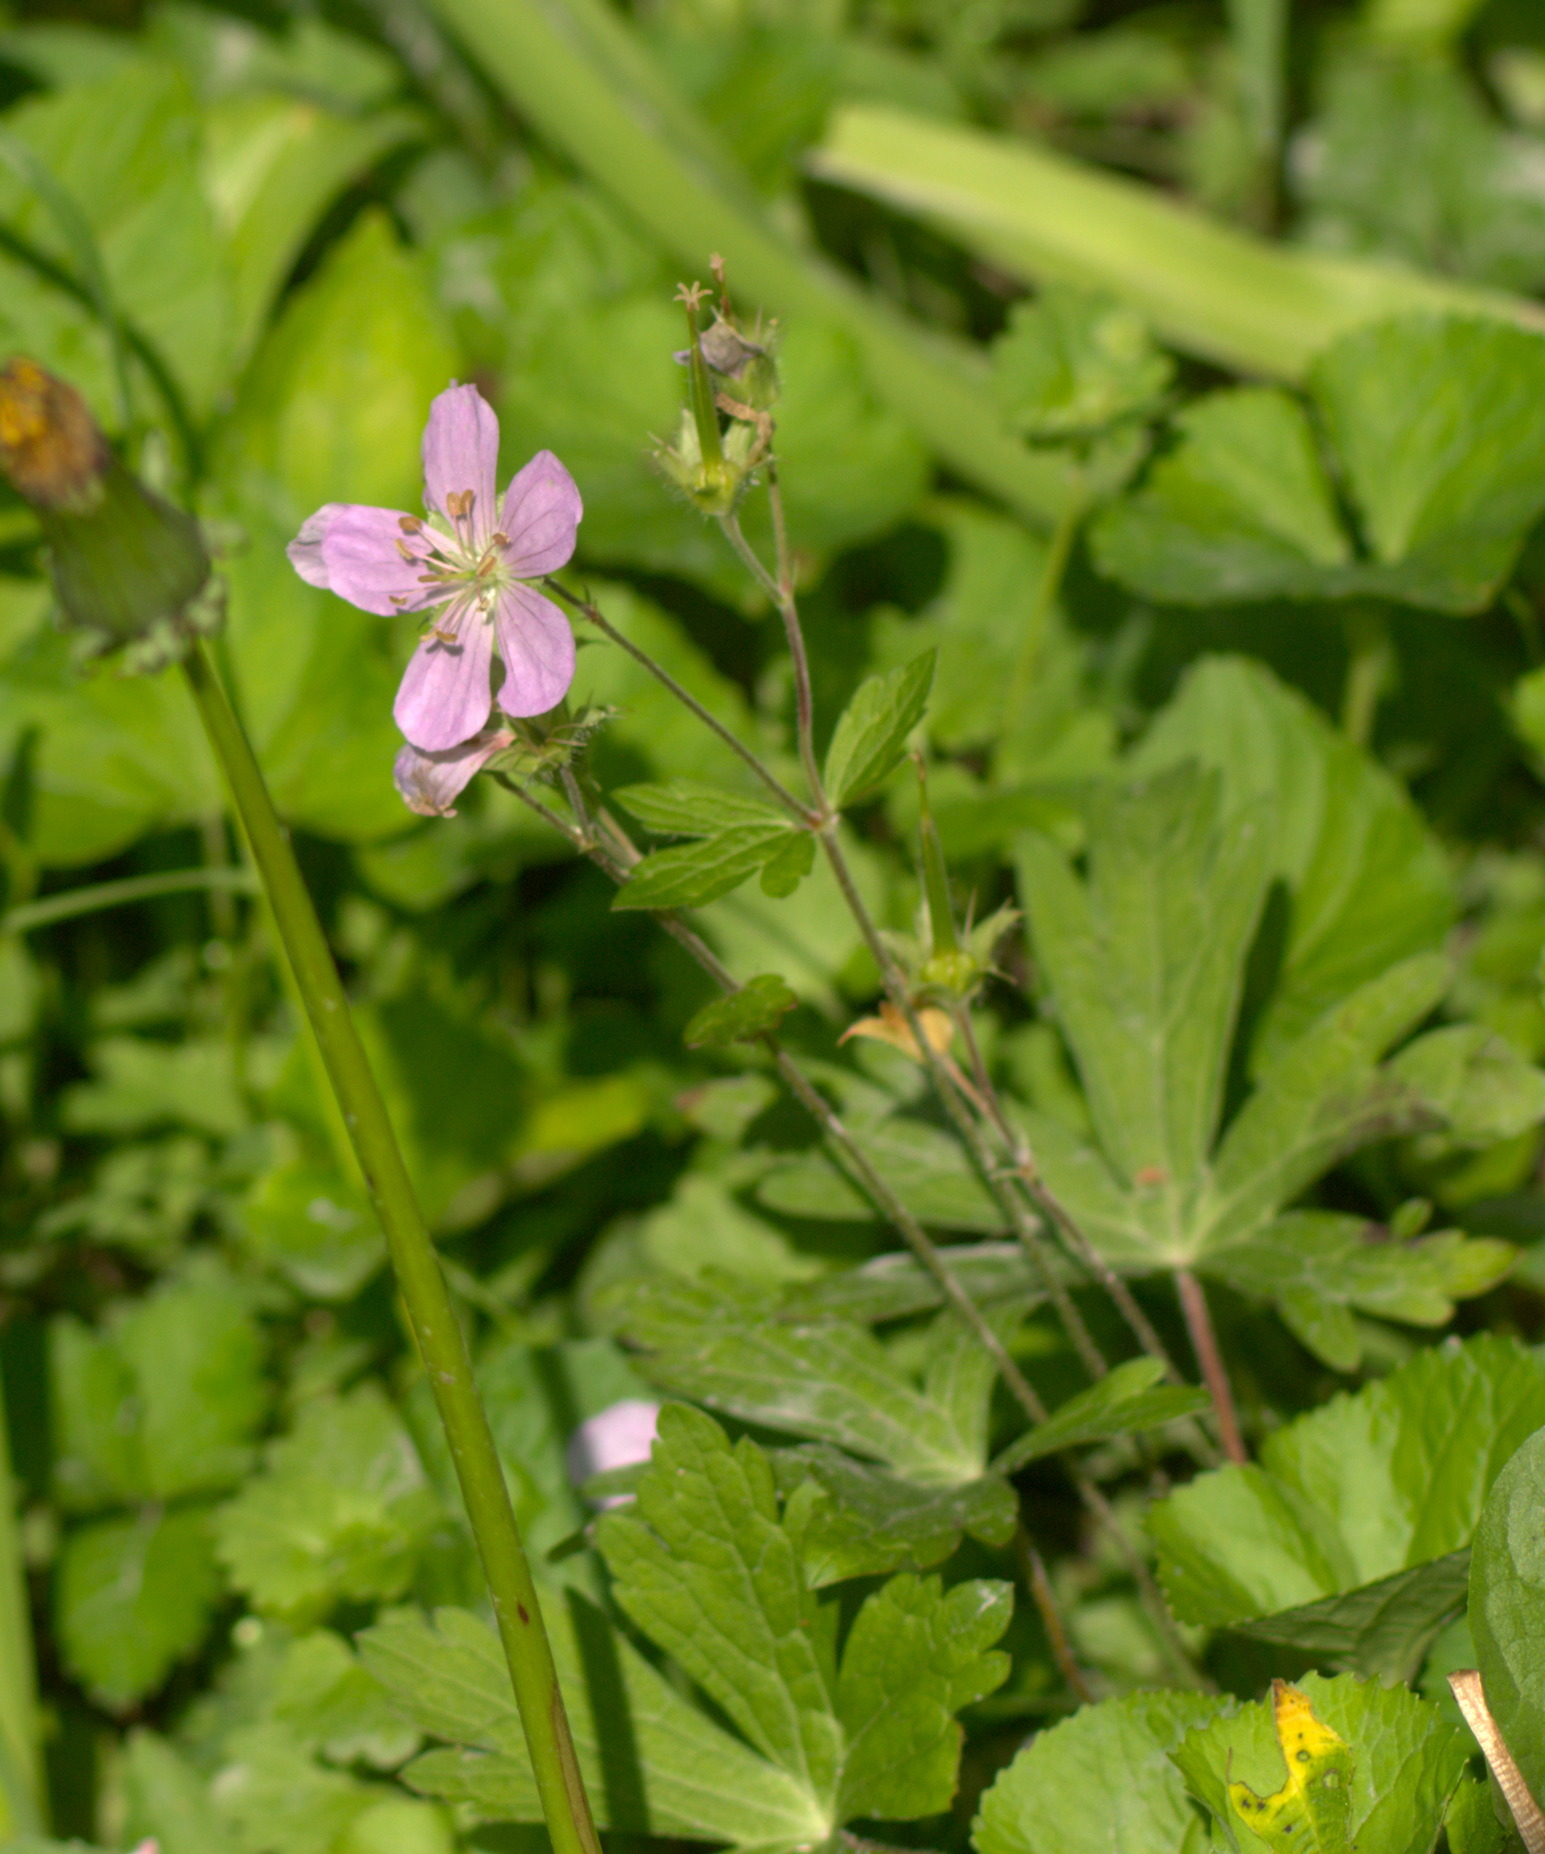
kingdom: Plantae
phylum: Tracheophyta
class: Magnoliopsida
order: Geraniales
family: Geraniaceae
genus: Geranium
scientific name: Geranium maculatum
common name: Spotted geranium
